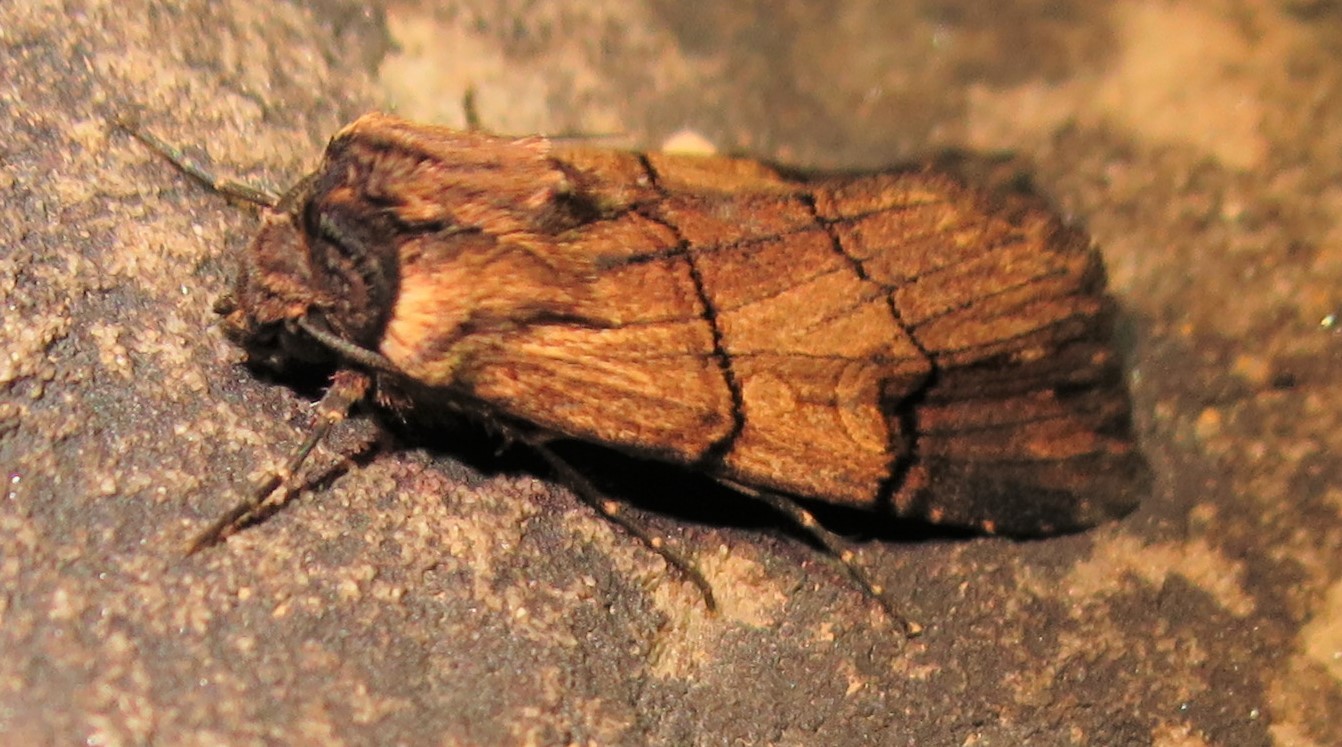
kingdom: Animalia
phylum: Arthropoda
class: Insecta
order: Lepidoptera
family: Noctuidae
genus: Dichagyris
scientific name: Dichagyris grotei
